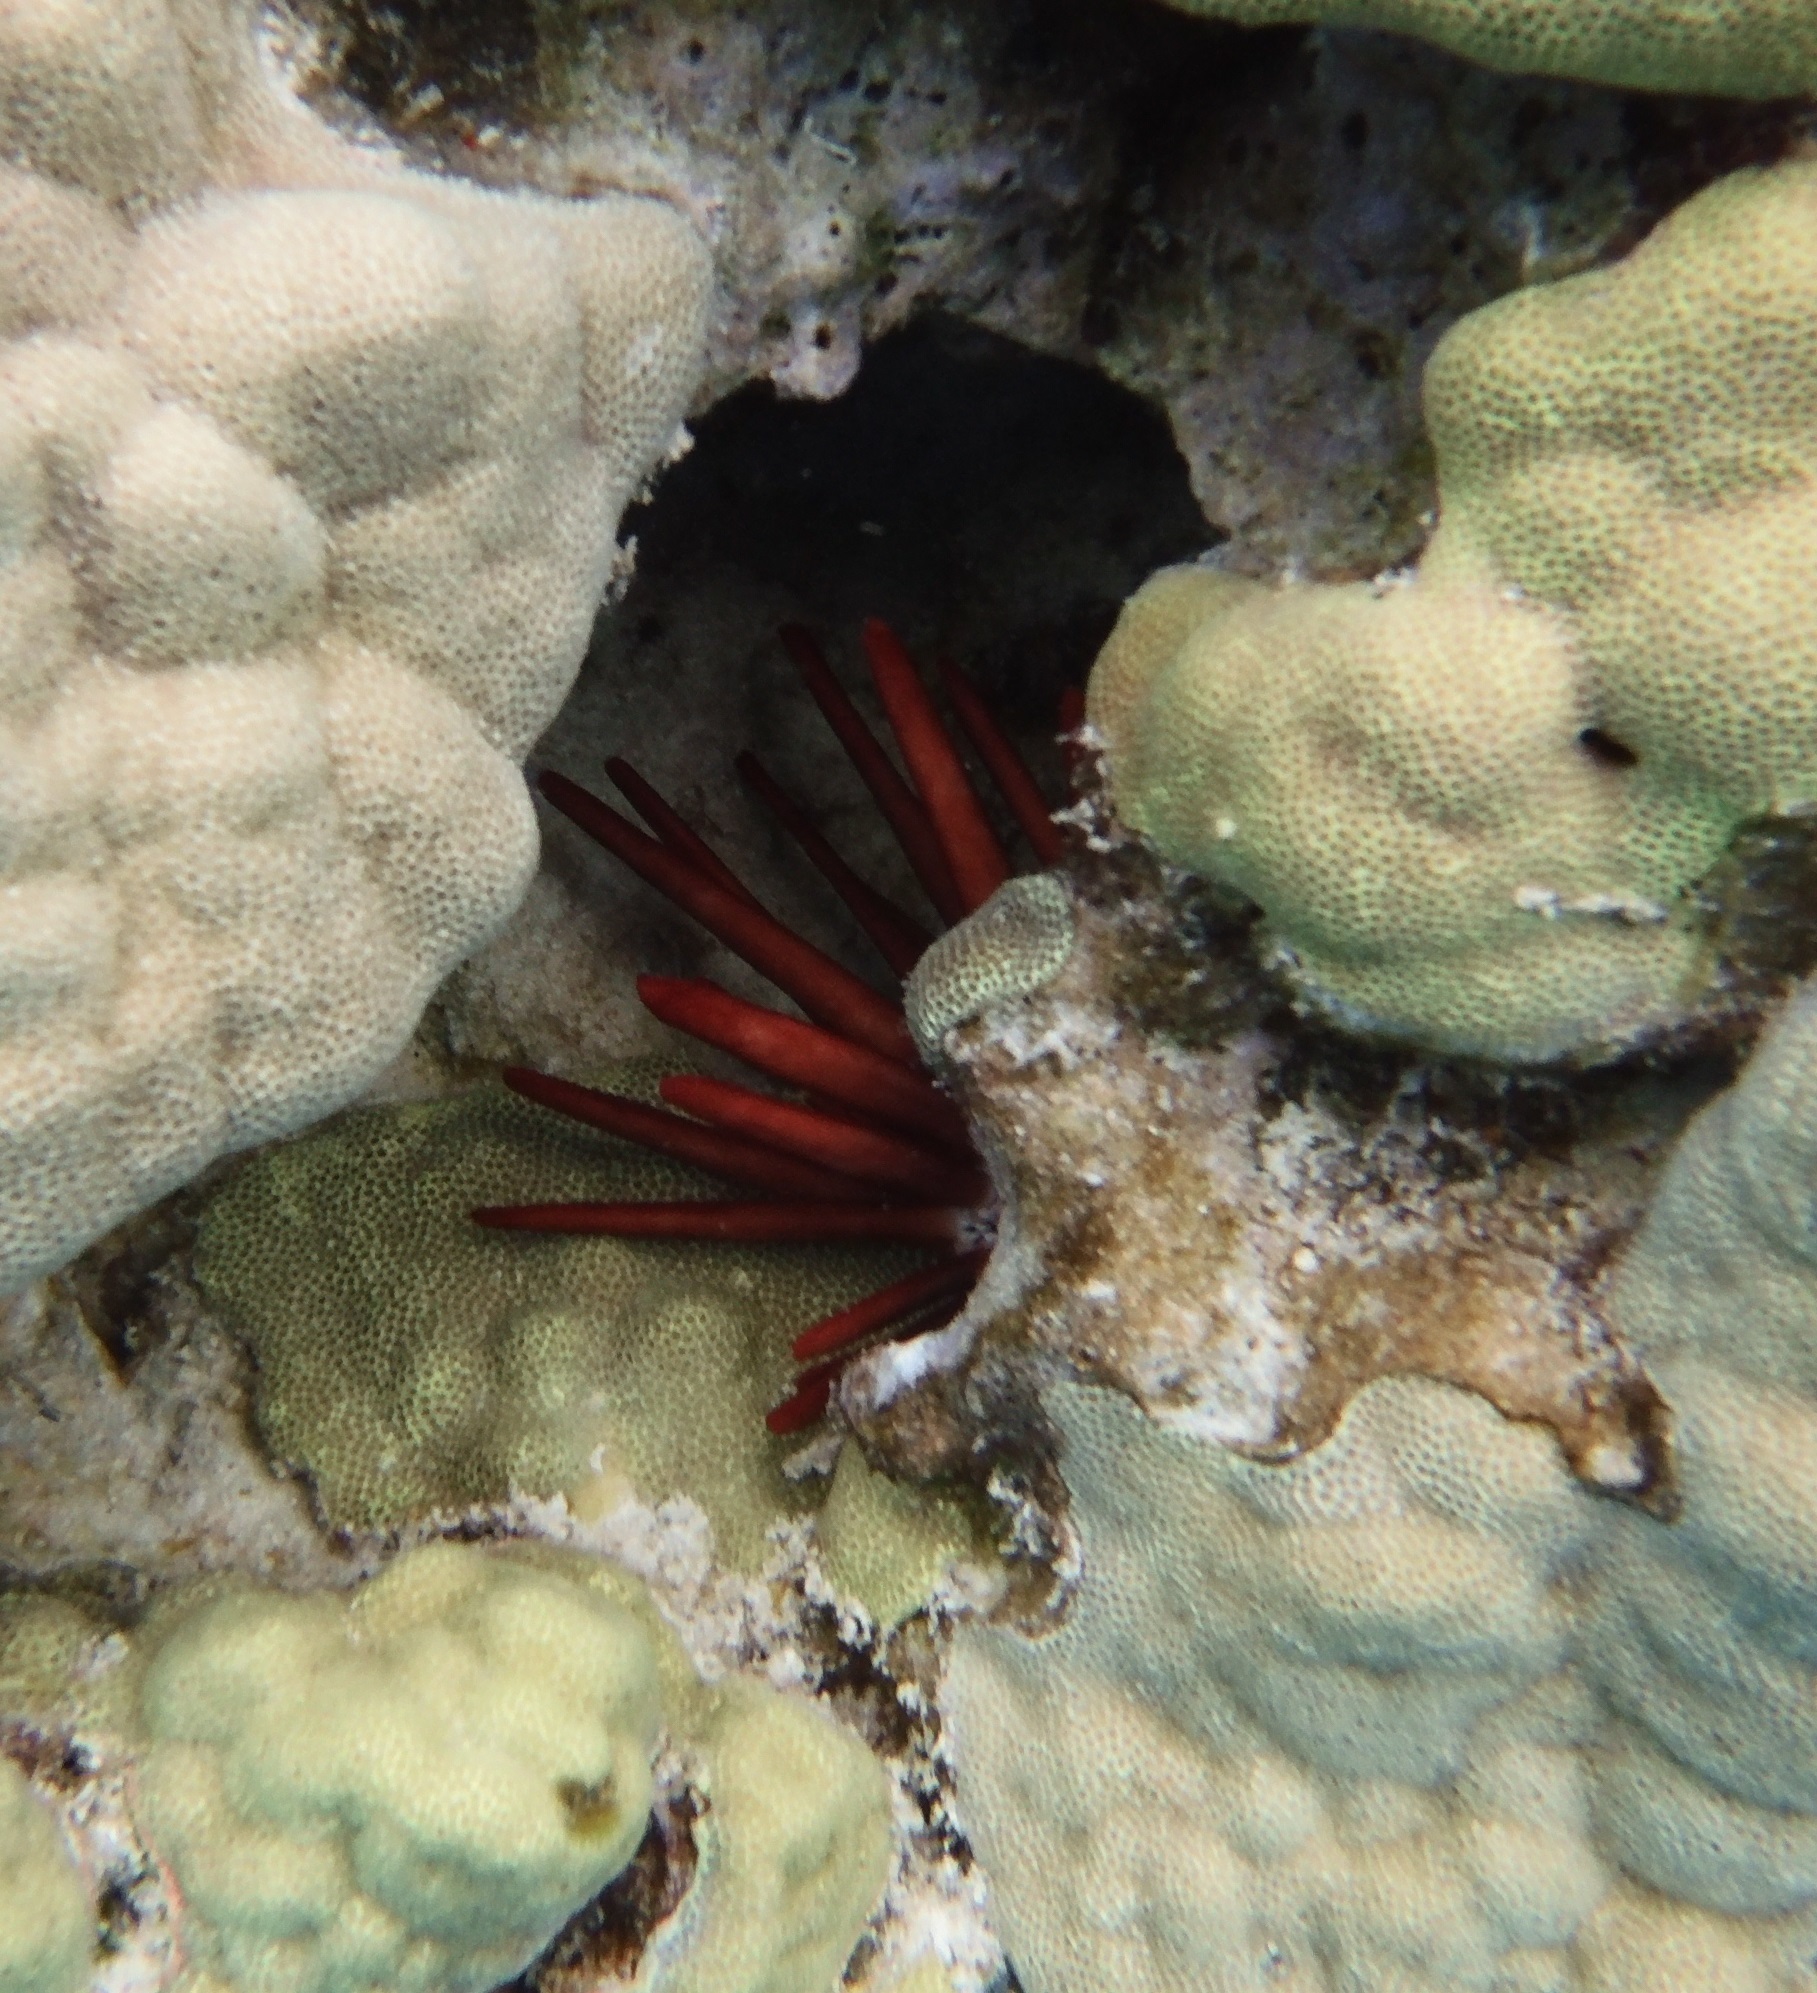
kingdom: Animalia
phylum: Echinodermata
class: Echinoidea
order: Camarodonta
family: Echinometridae
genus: Heterocentrotus
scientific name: Heterocentrotus mamillatus
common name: Slate pencil urchin
